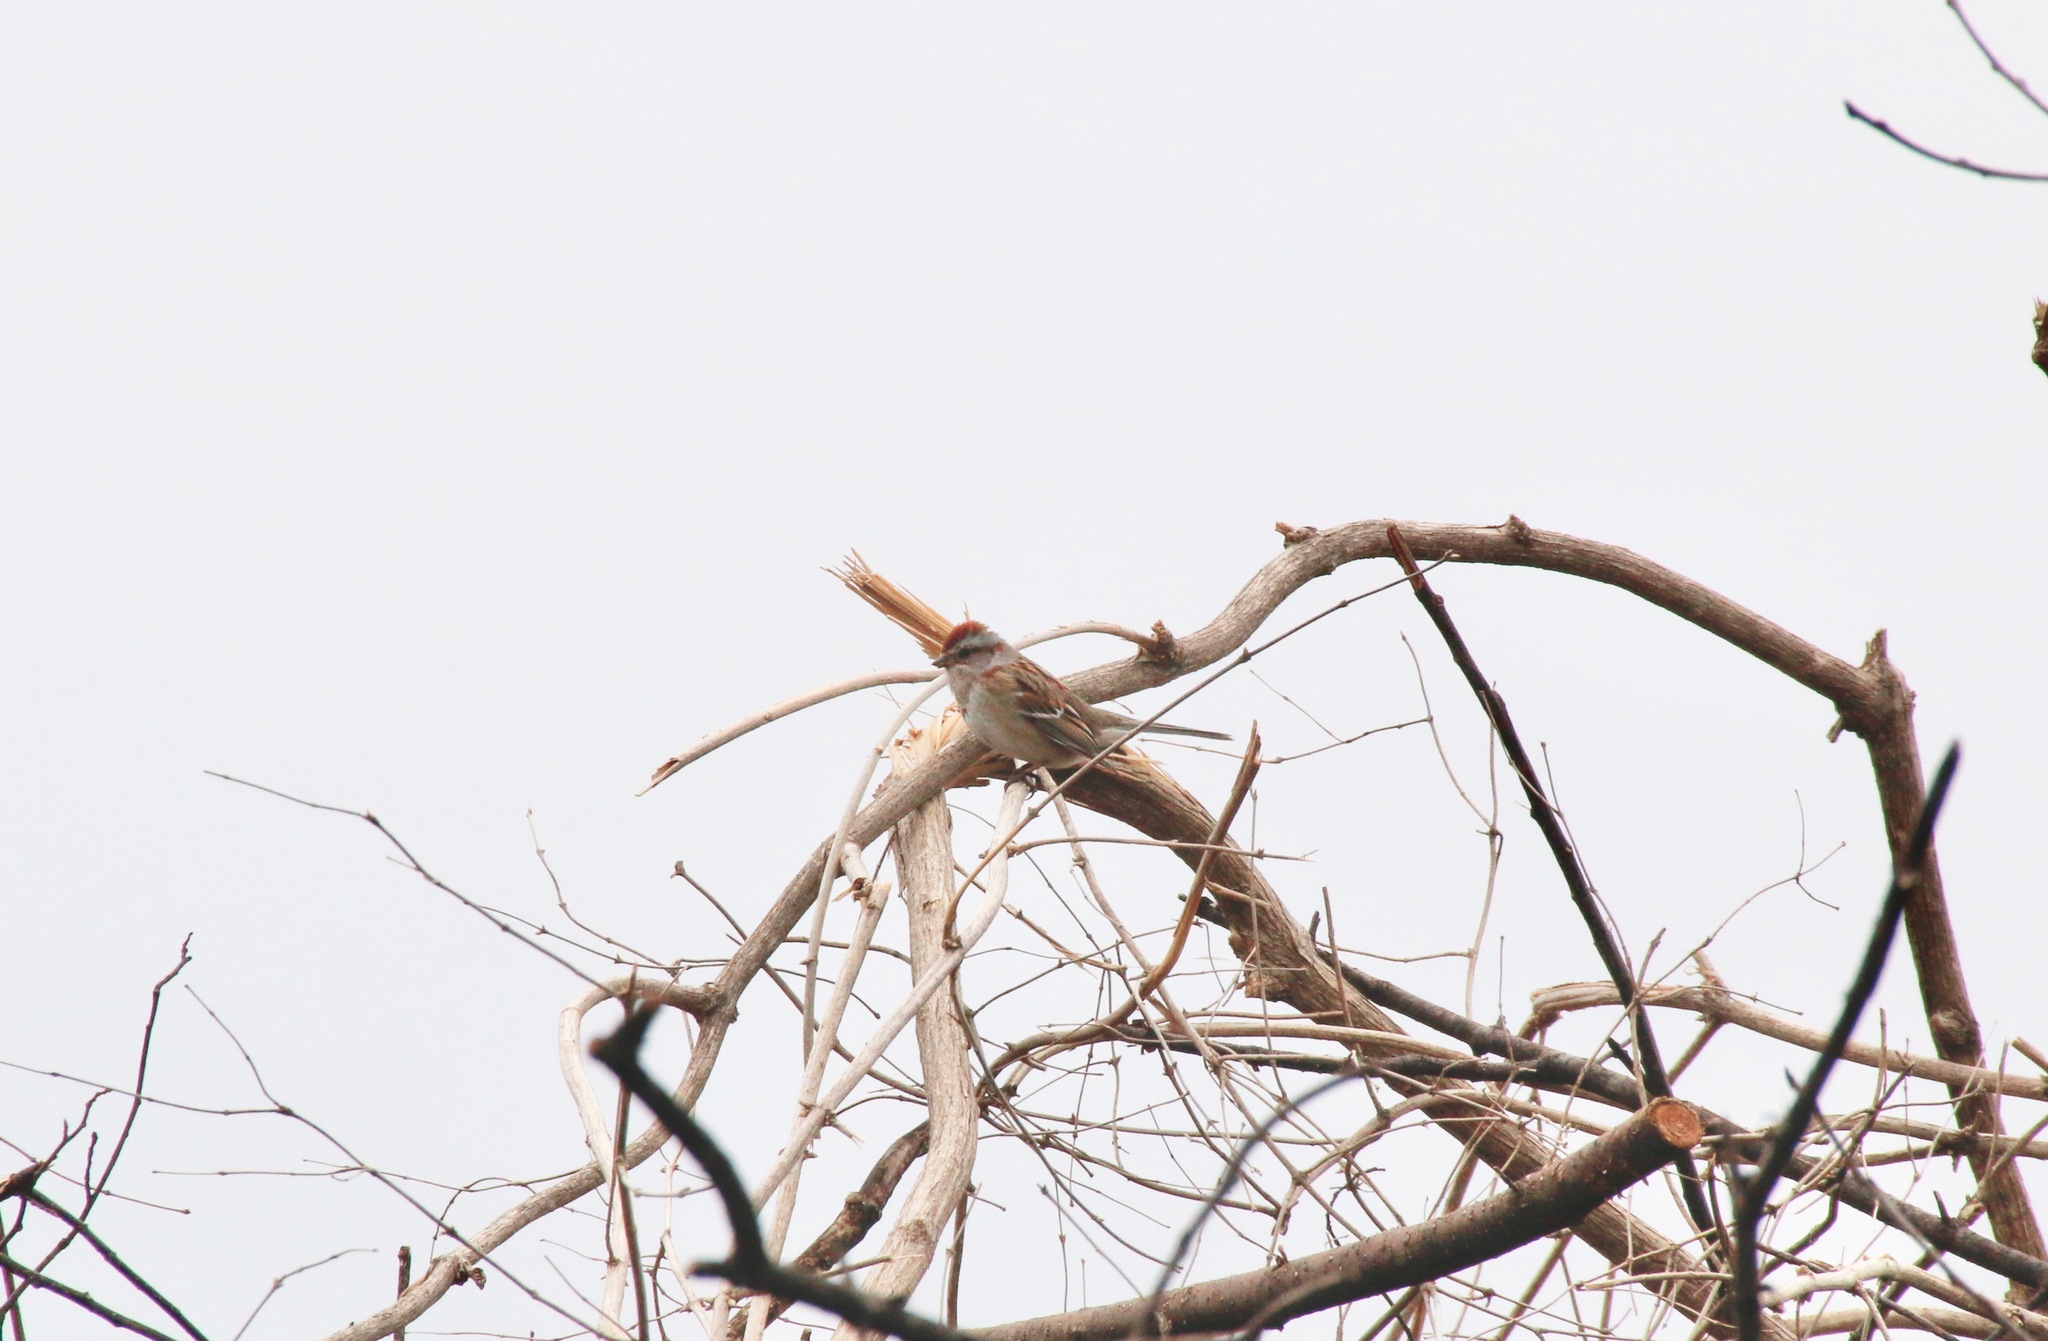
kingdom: Animalia
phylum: Chordata
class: Aves
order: Passeriformes
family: Passerellidae
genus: Spizelloides
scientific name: Spizelloides arborea
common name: American tree sparrow
